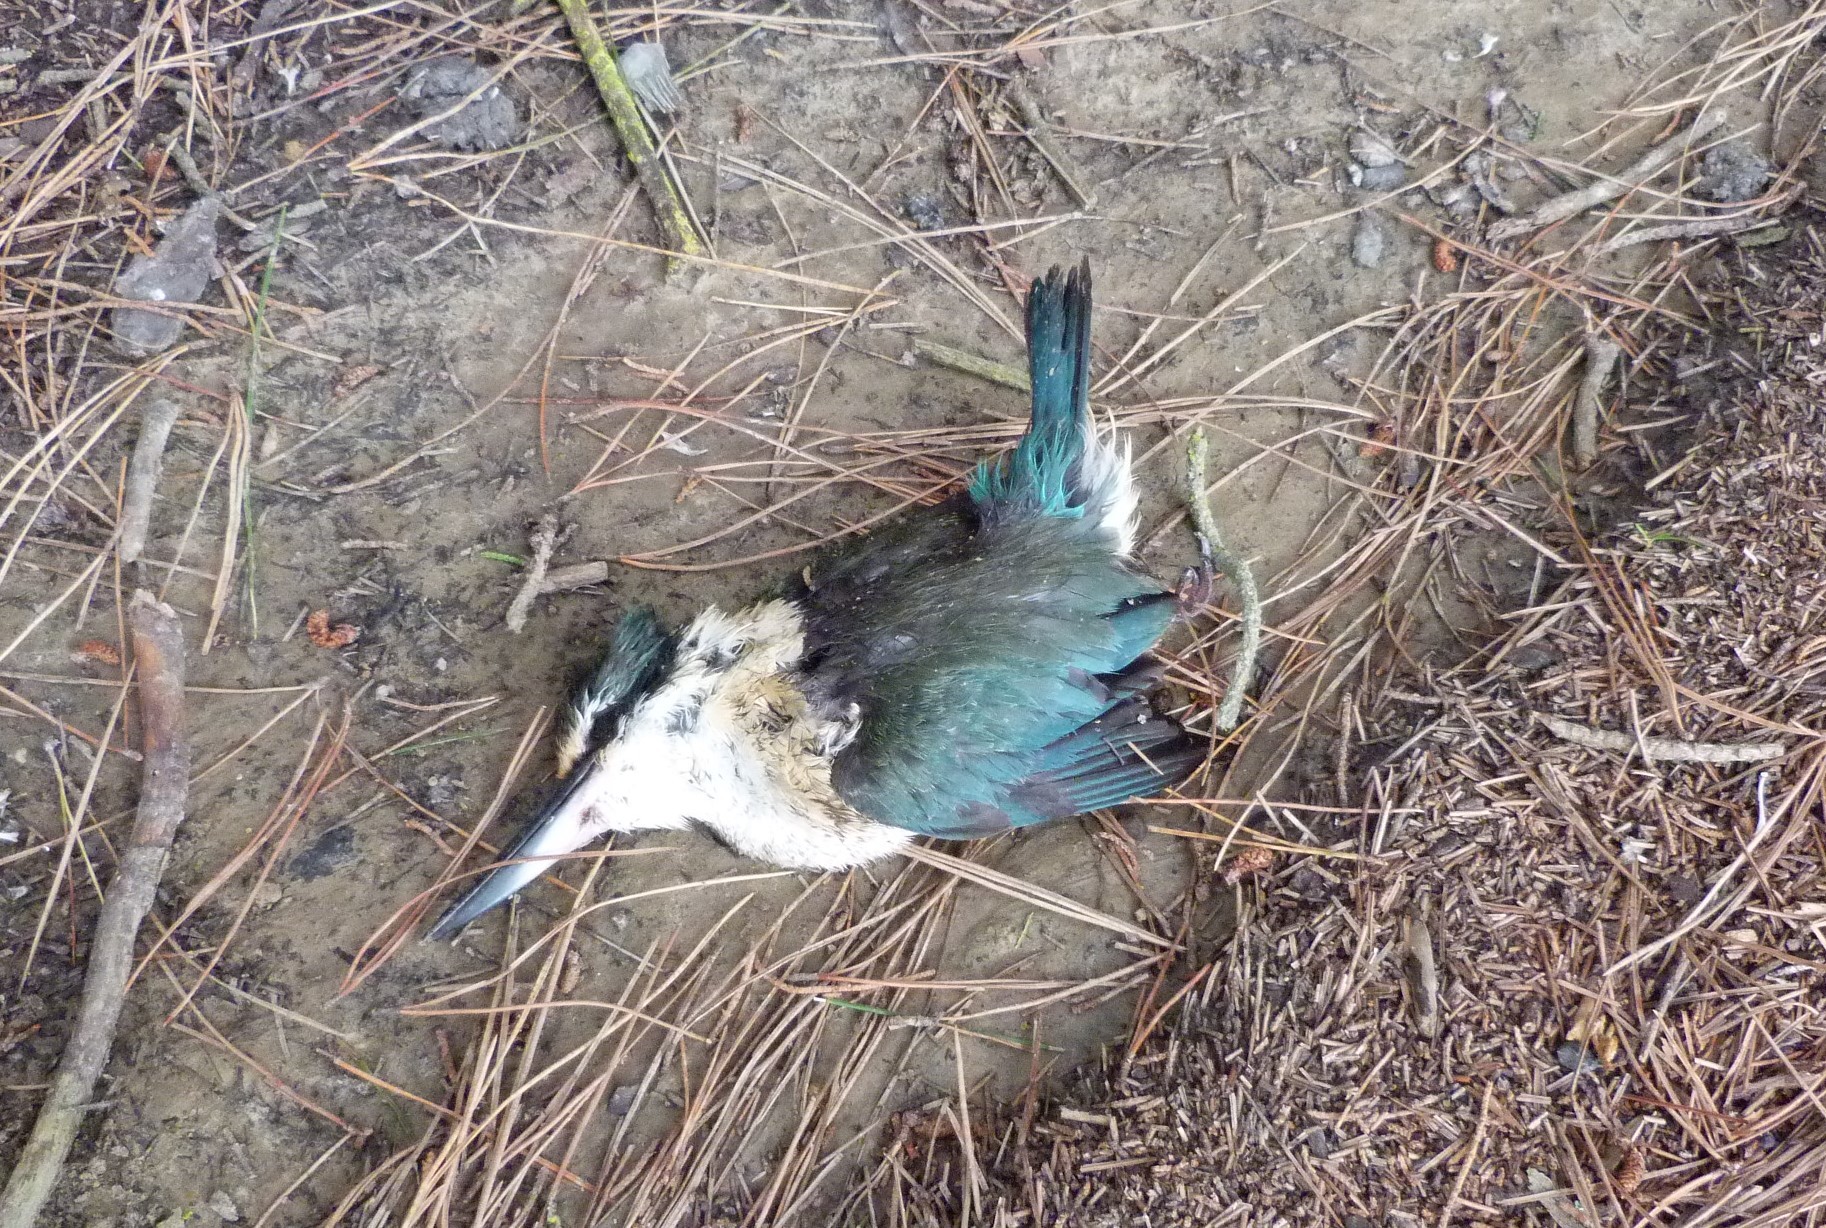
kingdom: Animalia
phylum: Chordata
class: Aves
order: Coraciiformes
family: Alcedinidae
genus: Todiramphus
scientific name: Todiramphus sanctus
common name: Sacred kingfisher
